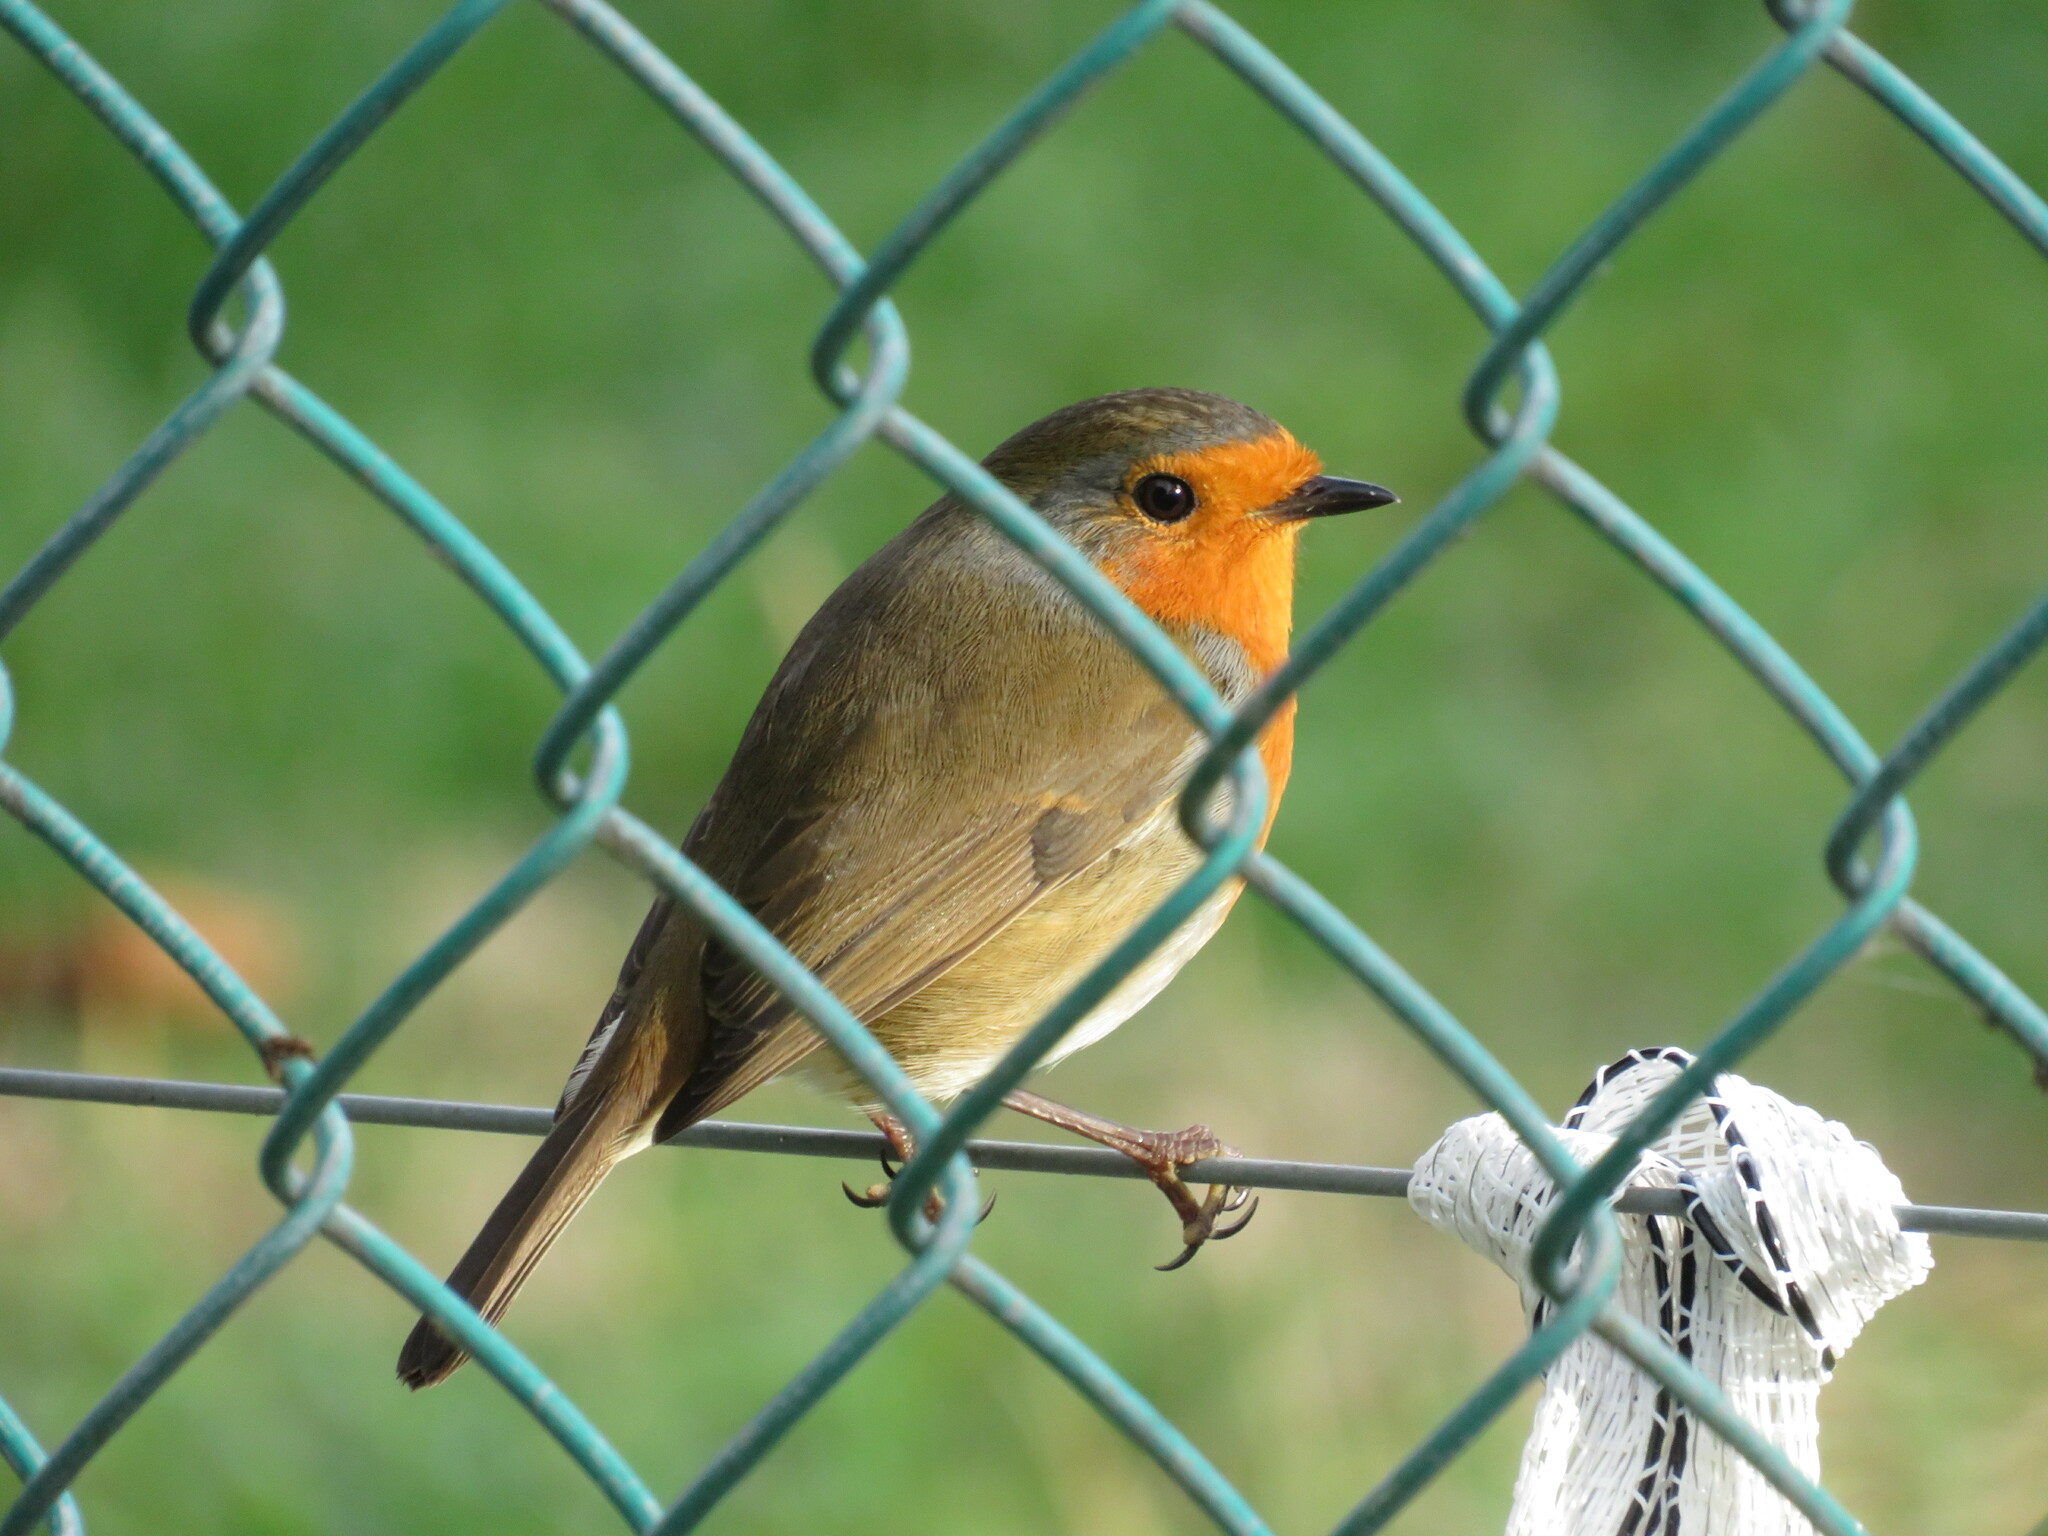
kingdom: Animalia
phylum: Chordata
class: Aves
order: Passeriformes
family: Muscicapidae
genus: Erithacus
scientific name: Erithacus rubecula
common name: European robin
